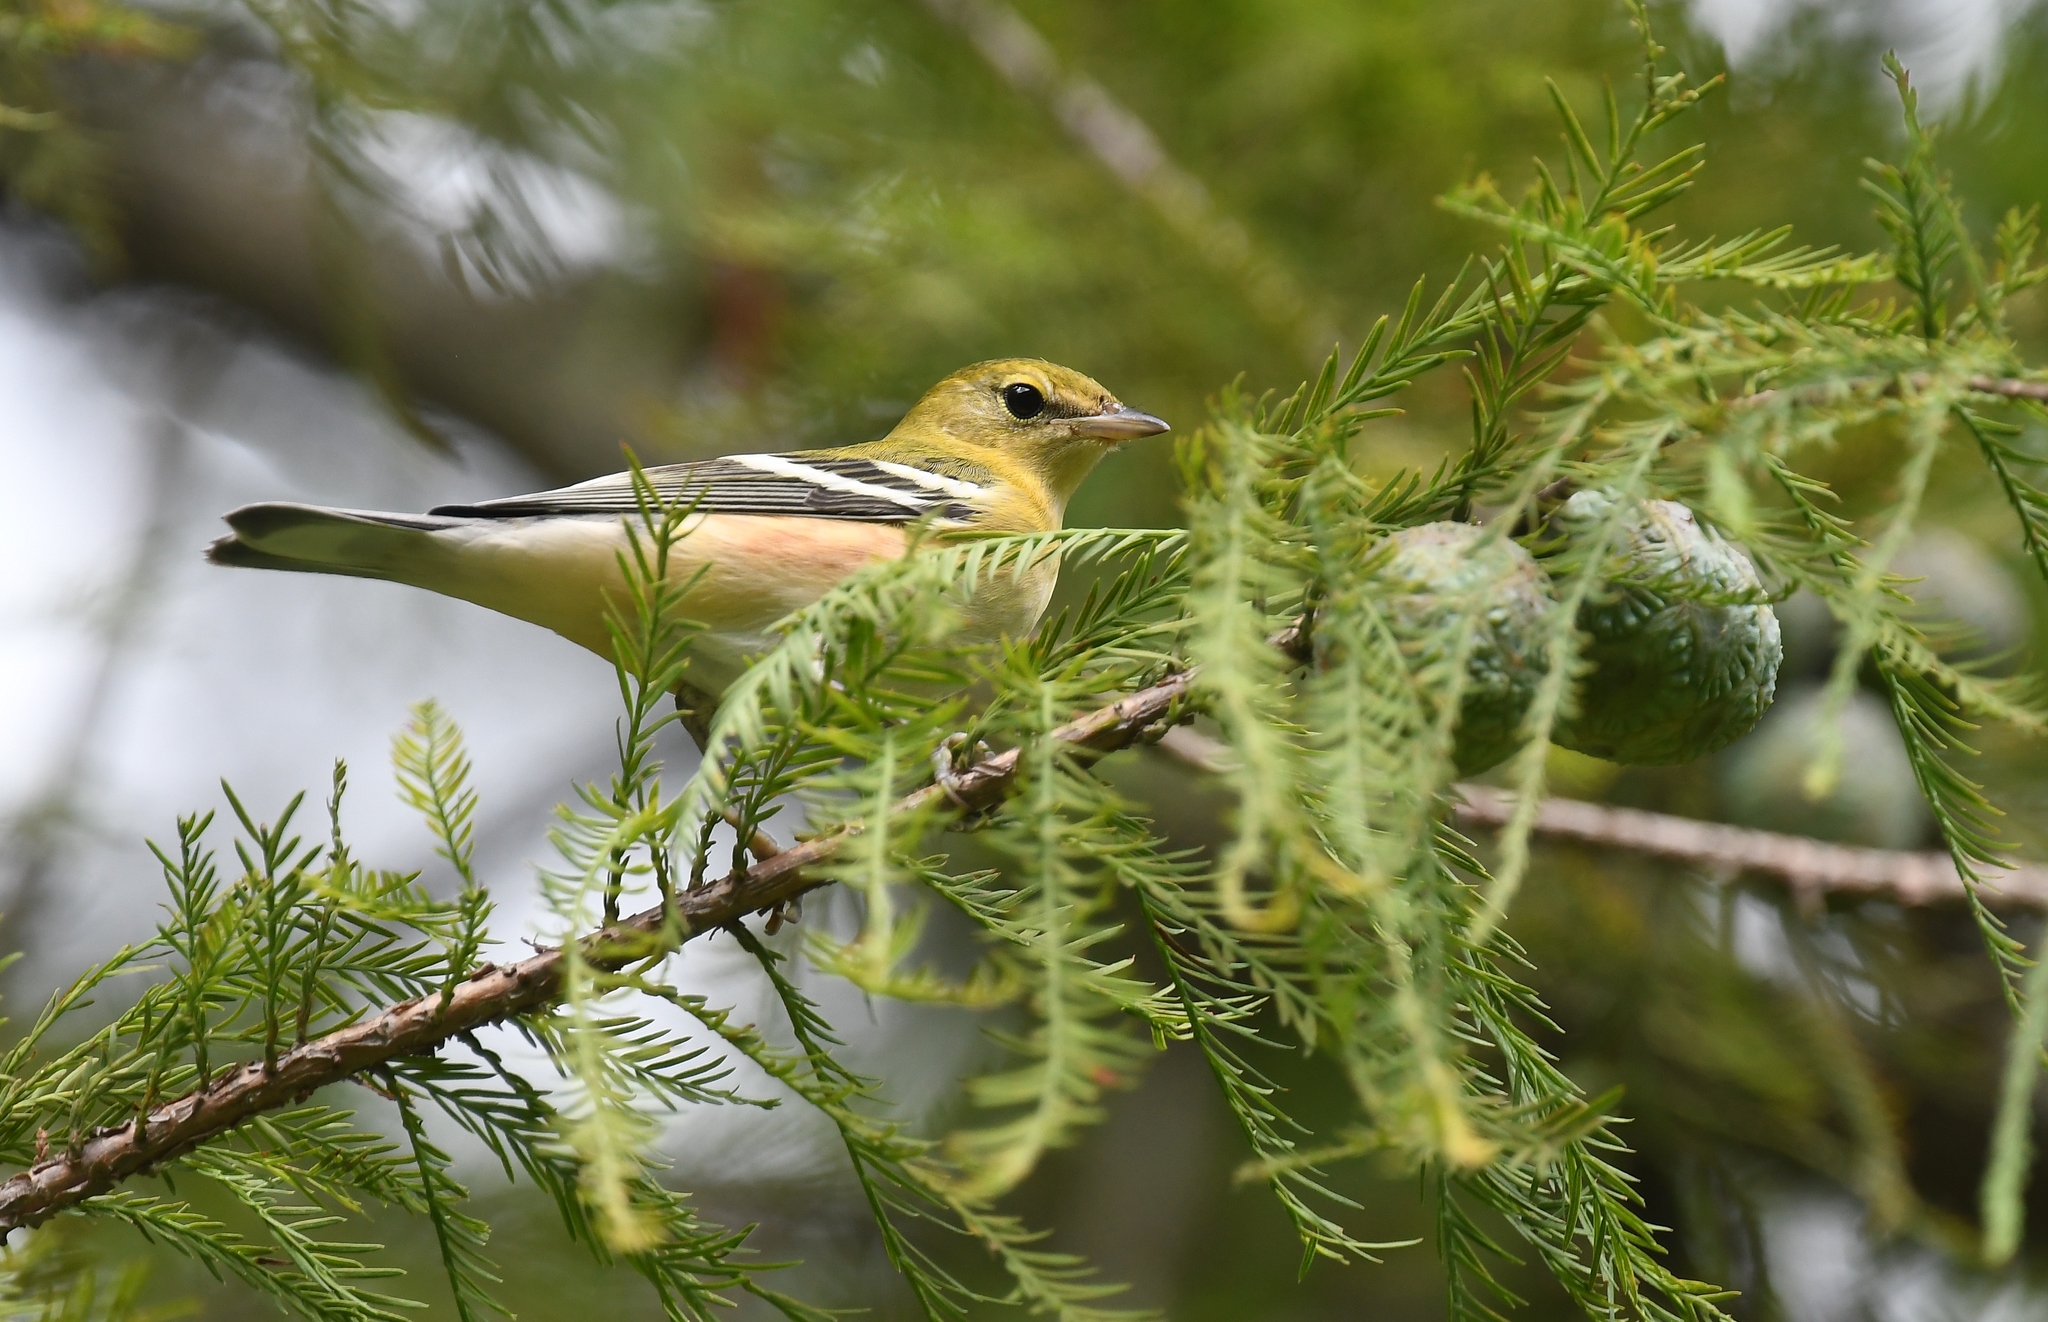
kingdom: Animalia
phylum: Chordata
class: Aves
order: Passeriformes
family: Parulidae
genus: Setophaga
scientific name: Setophaga castanea
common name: Bay-breasted warbler
